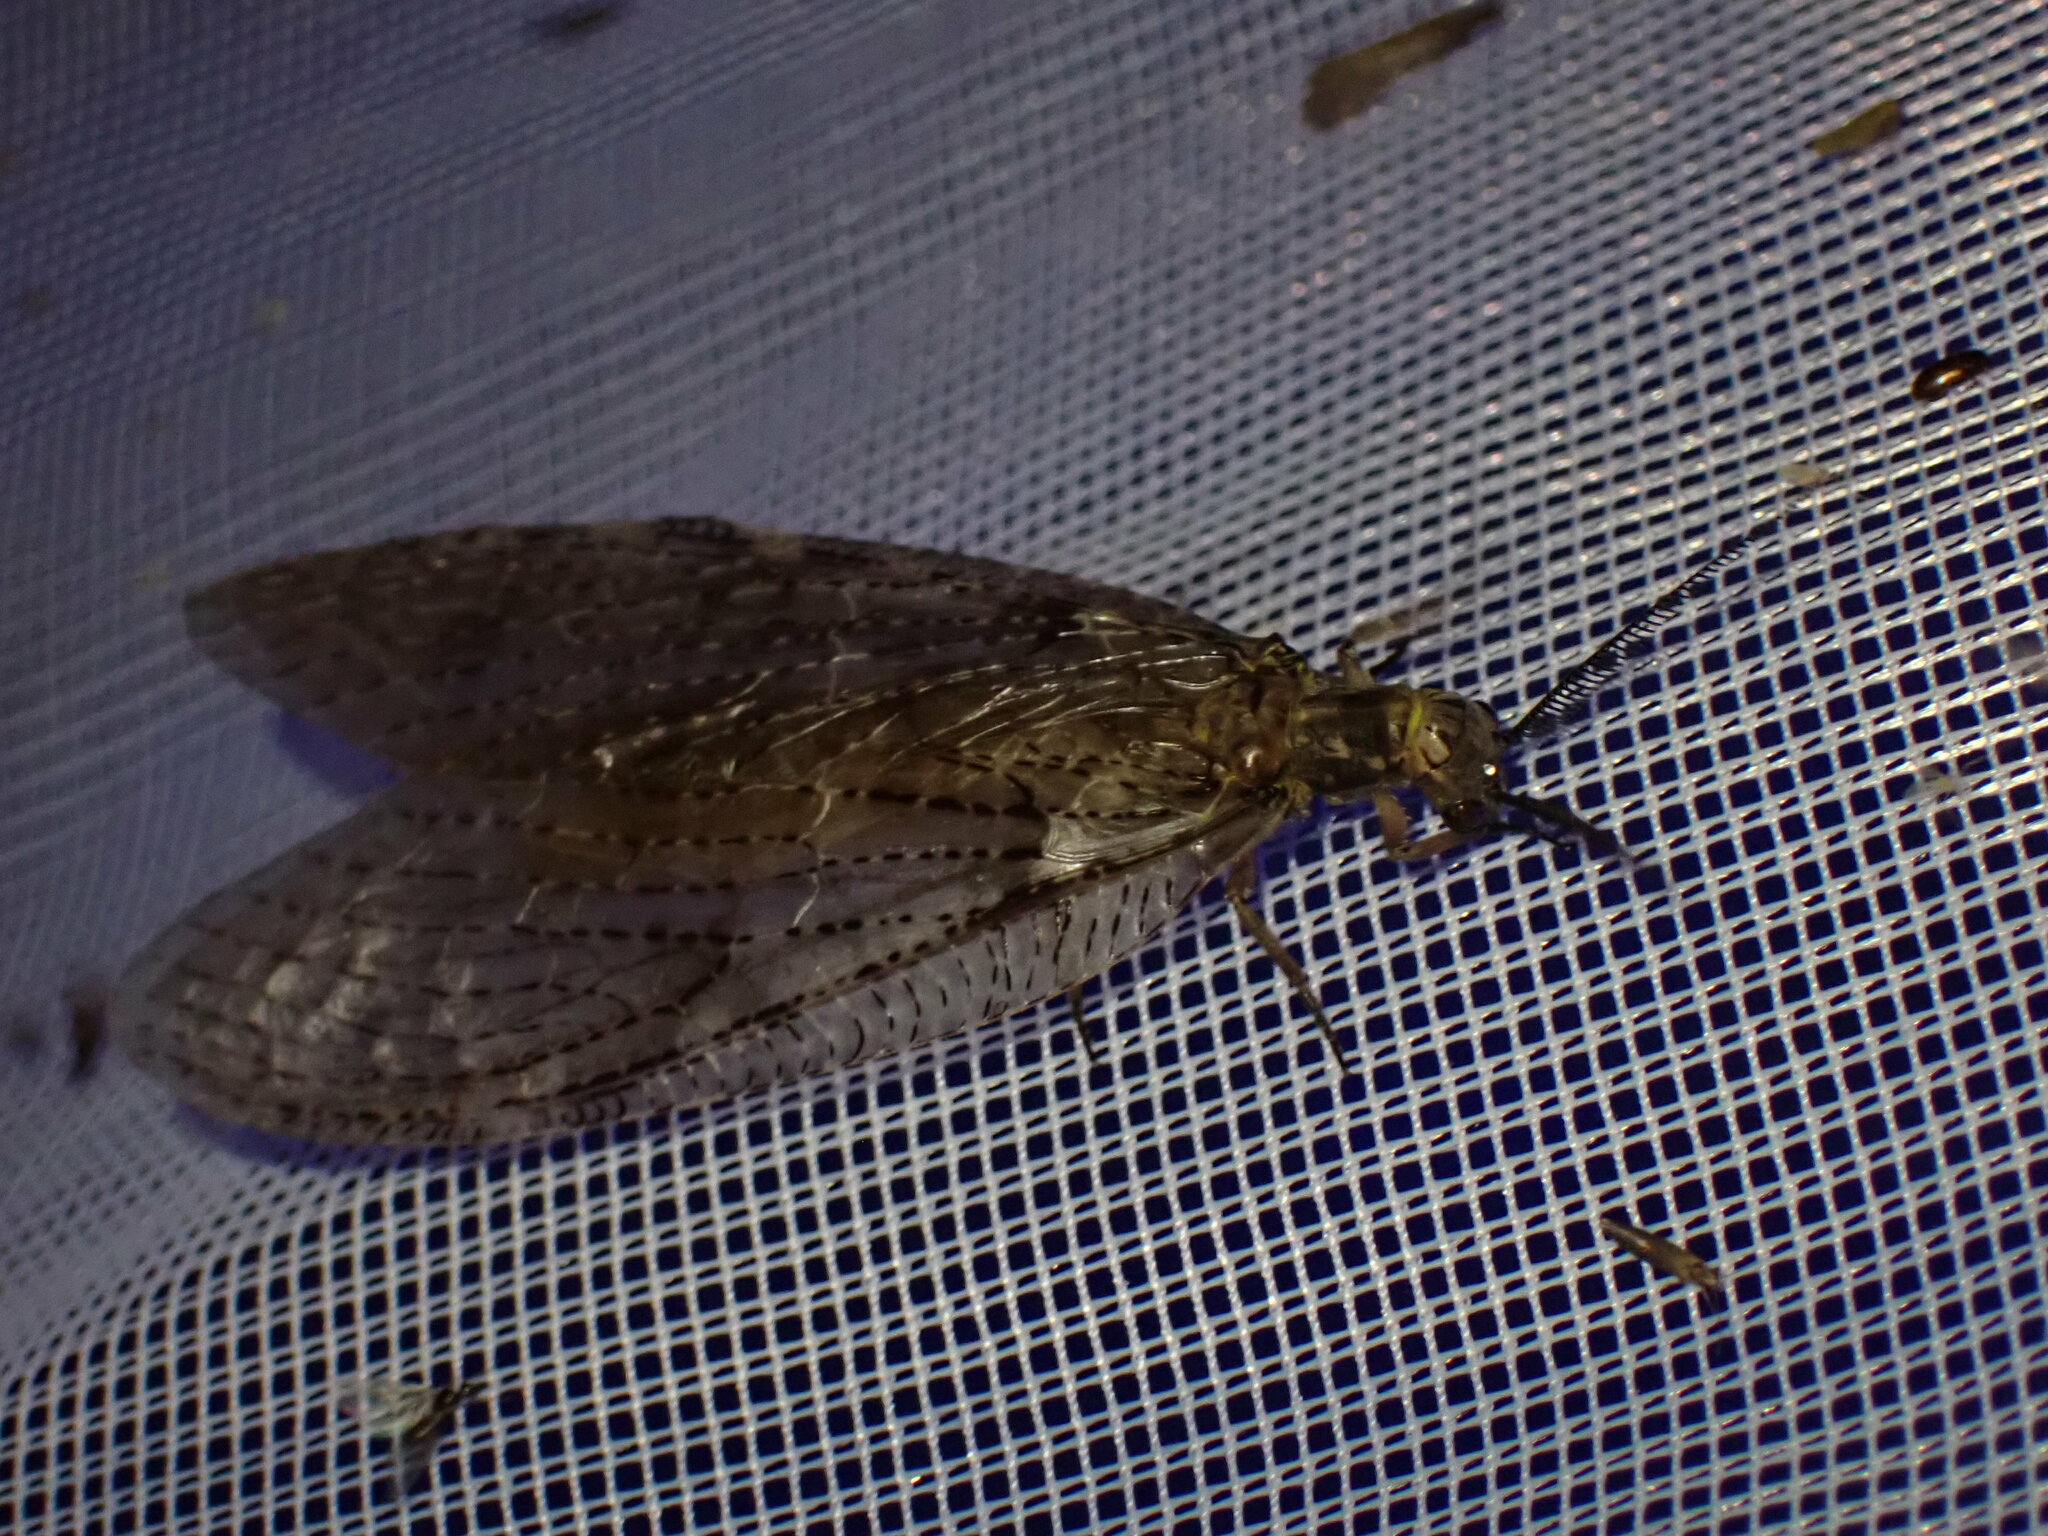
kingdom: Animalia
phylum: Arthropoda
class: Insecta
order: Megaloptera
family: Corydalidae
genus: Chauliodes
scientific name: Chauliodes pectinicornis
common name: Summer fishfly
